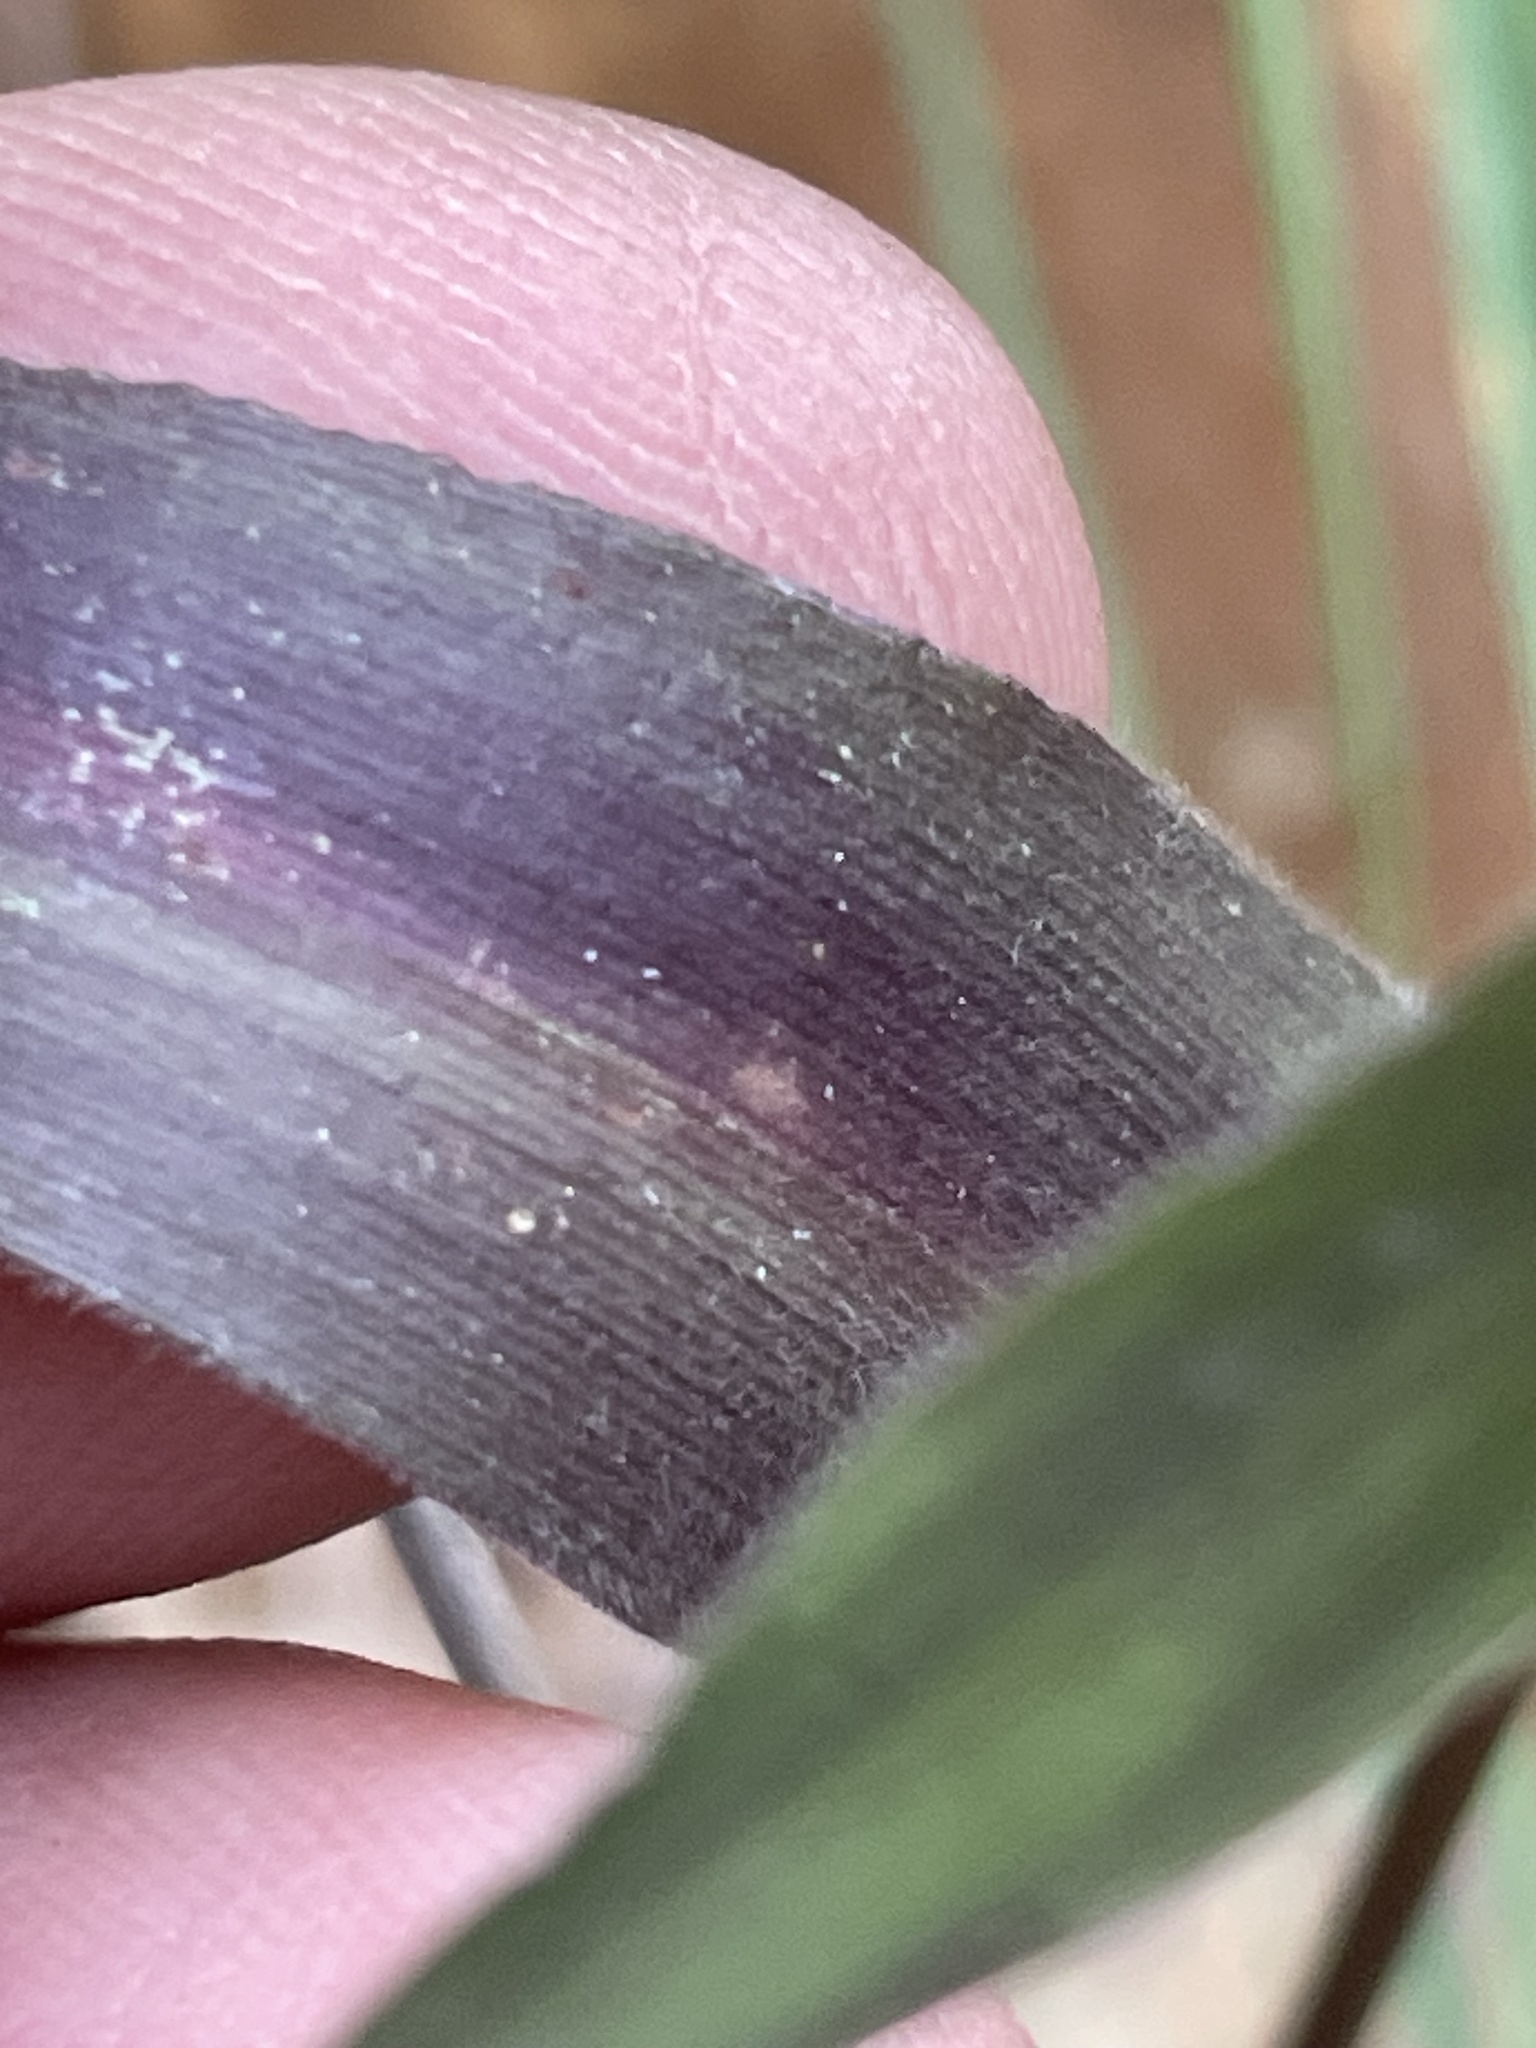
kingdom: Plantae
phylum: Tracheophyta
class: Liliopsida
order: Poales
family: Poaceae
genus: Dichanthelium
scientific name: Dichanthelium annulum
